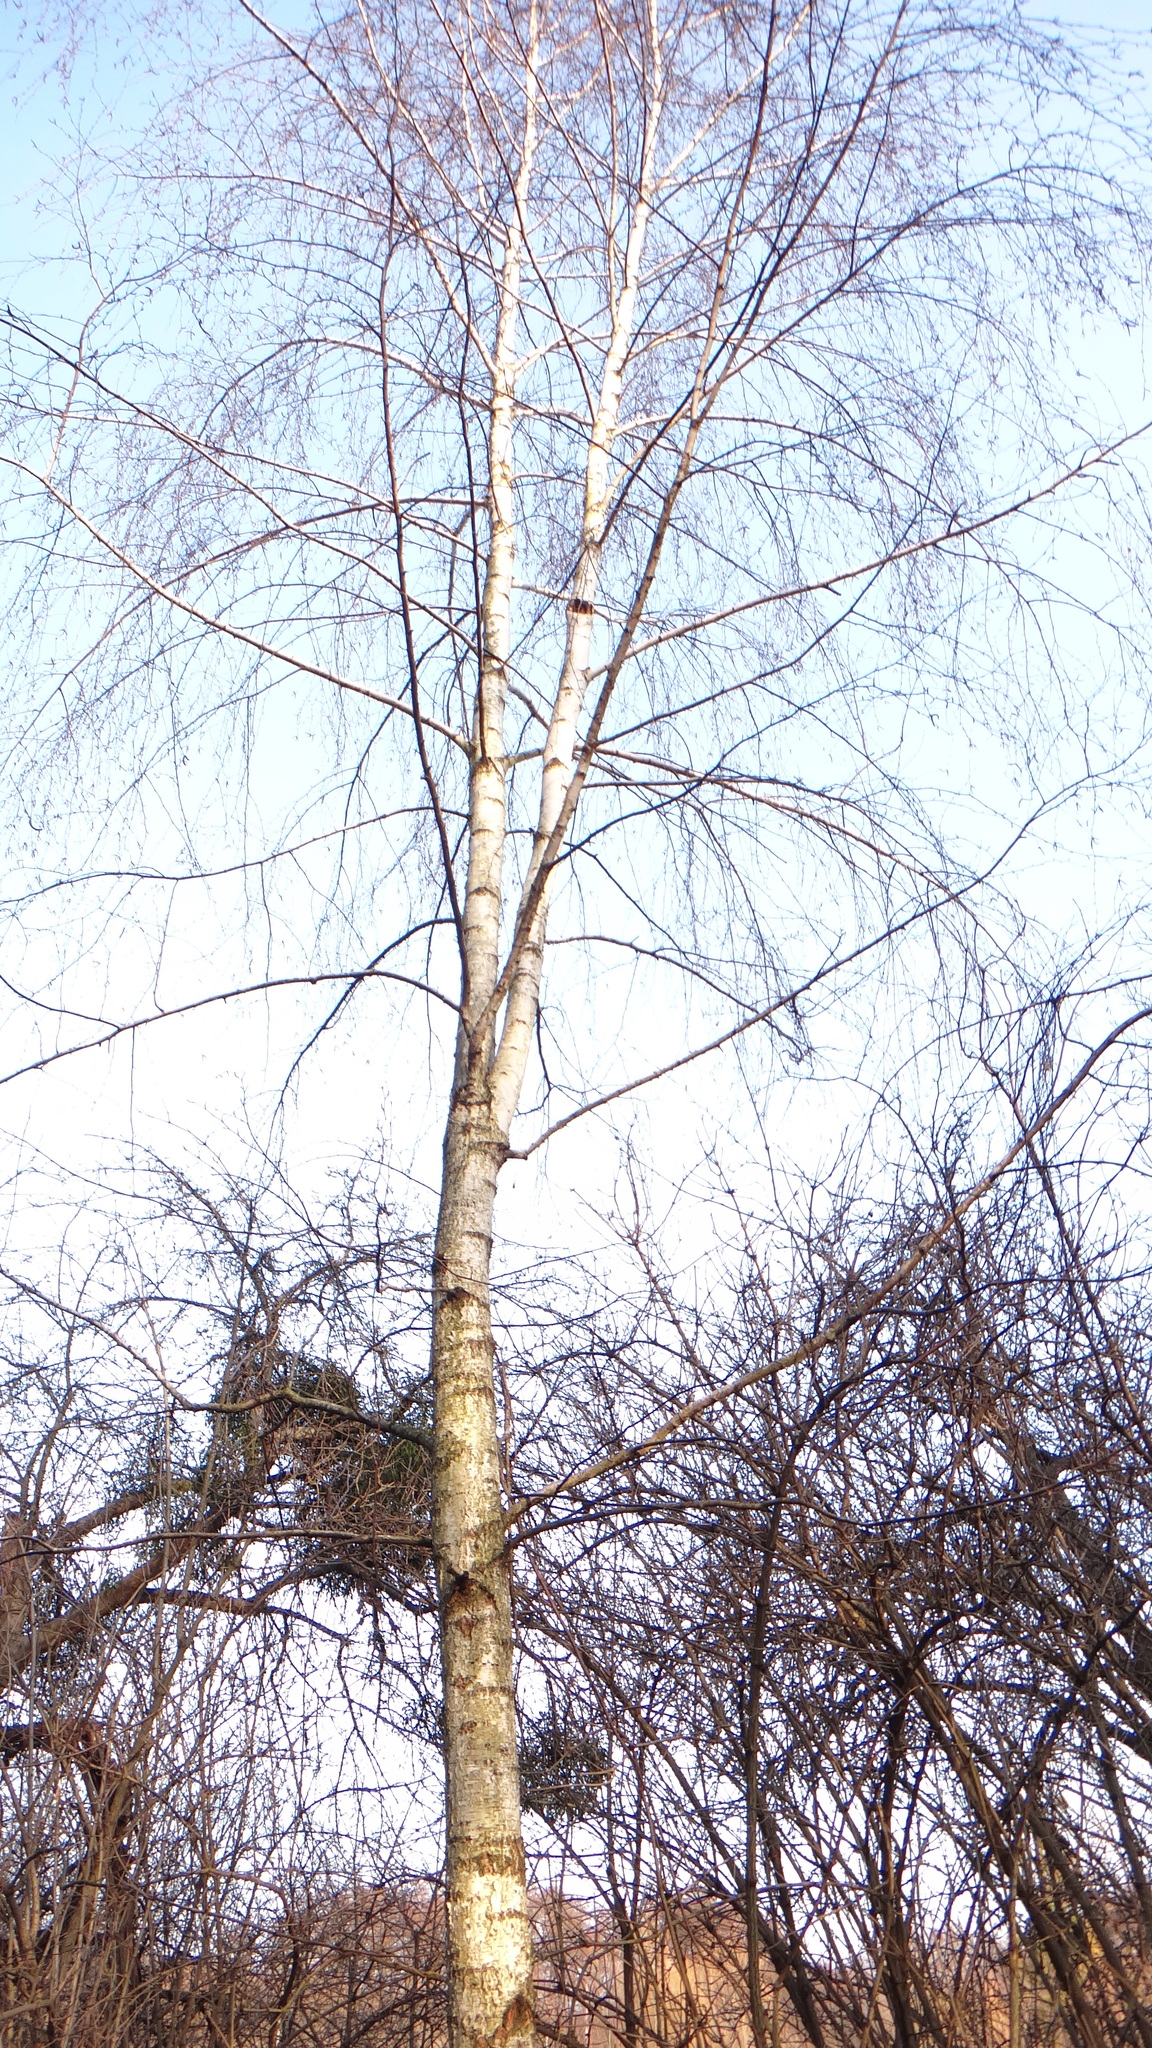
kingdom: Plantae
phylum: Tracheophyta
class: Magnoliopsida
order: Fagales
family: Betulaceae
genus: Betula
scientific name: Betula pendula
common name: Silver birch
